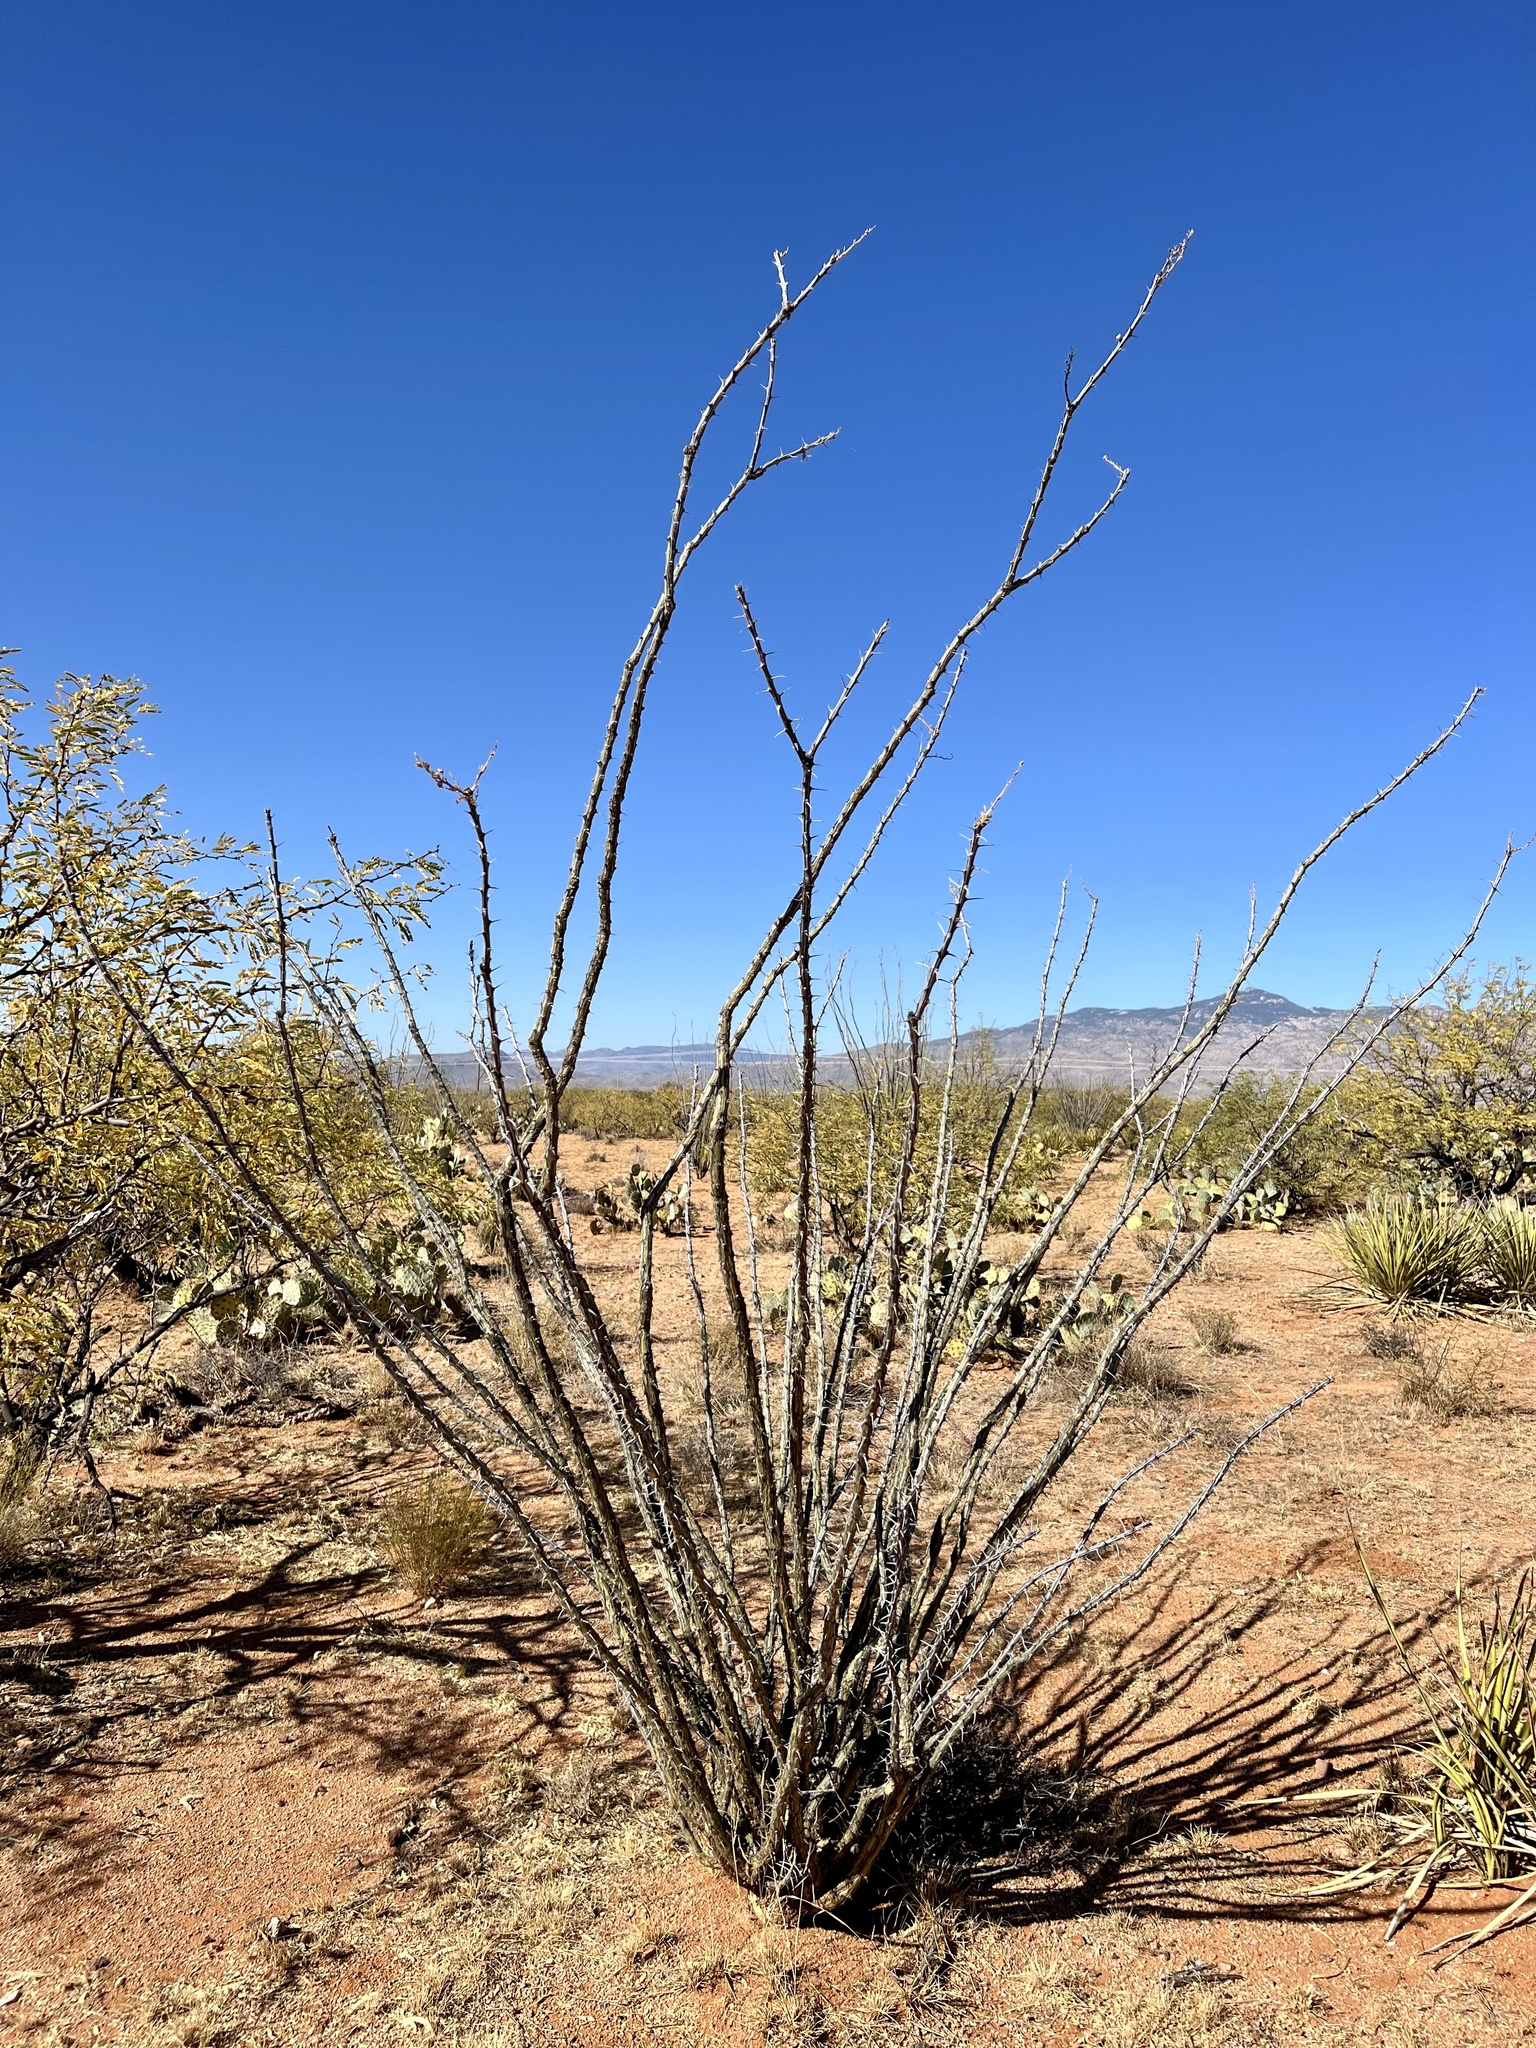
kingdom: Plantae
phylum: Tracheophyta
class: Magnoliopsida
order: Ericales
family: Fouquieriaceae
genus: Fouquieria
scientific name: Fouquieria splendens
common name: Vine-cactus
